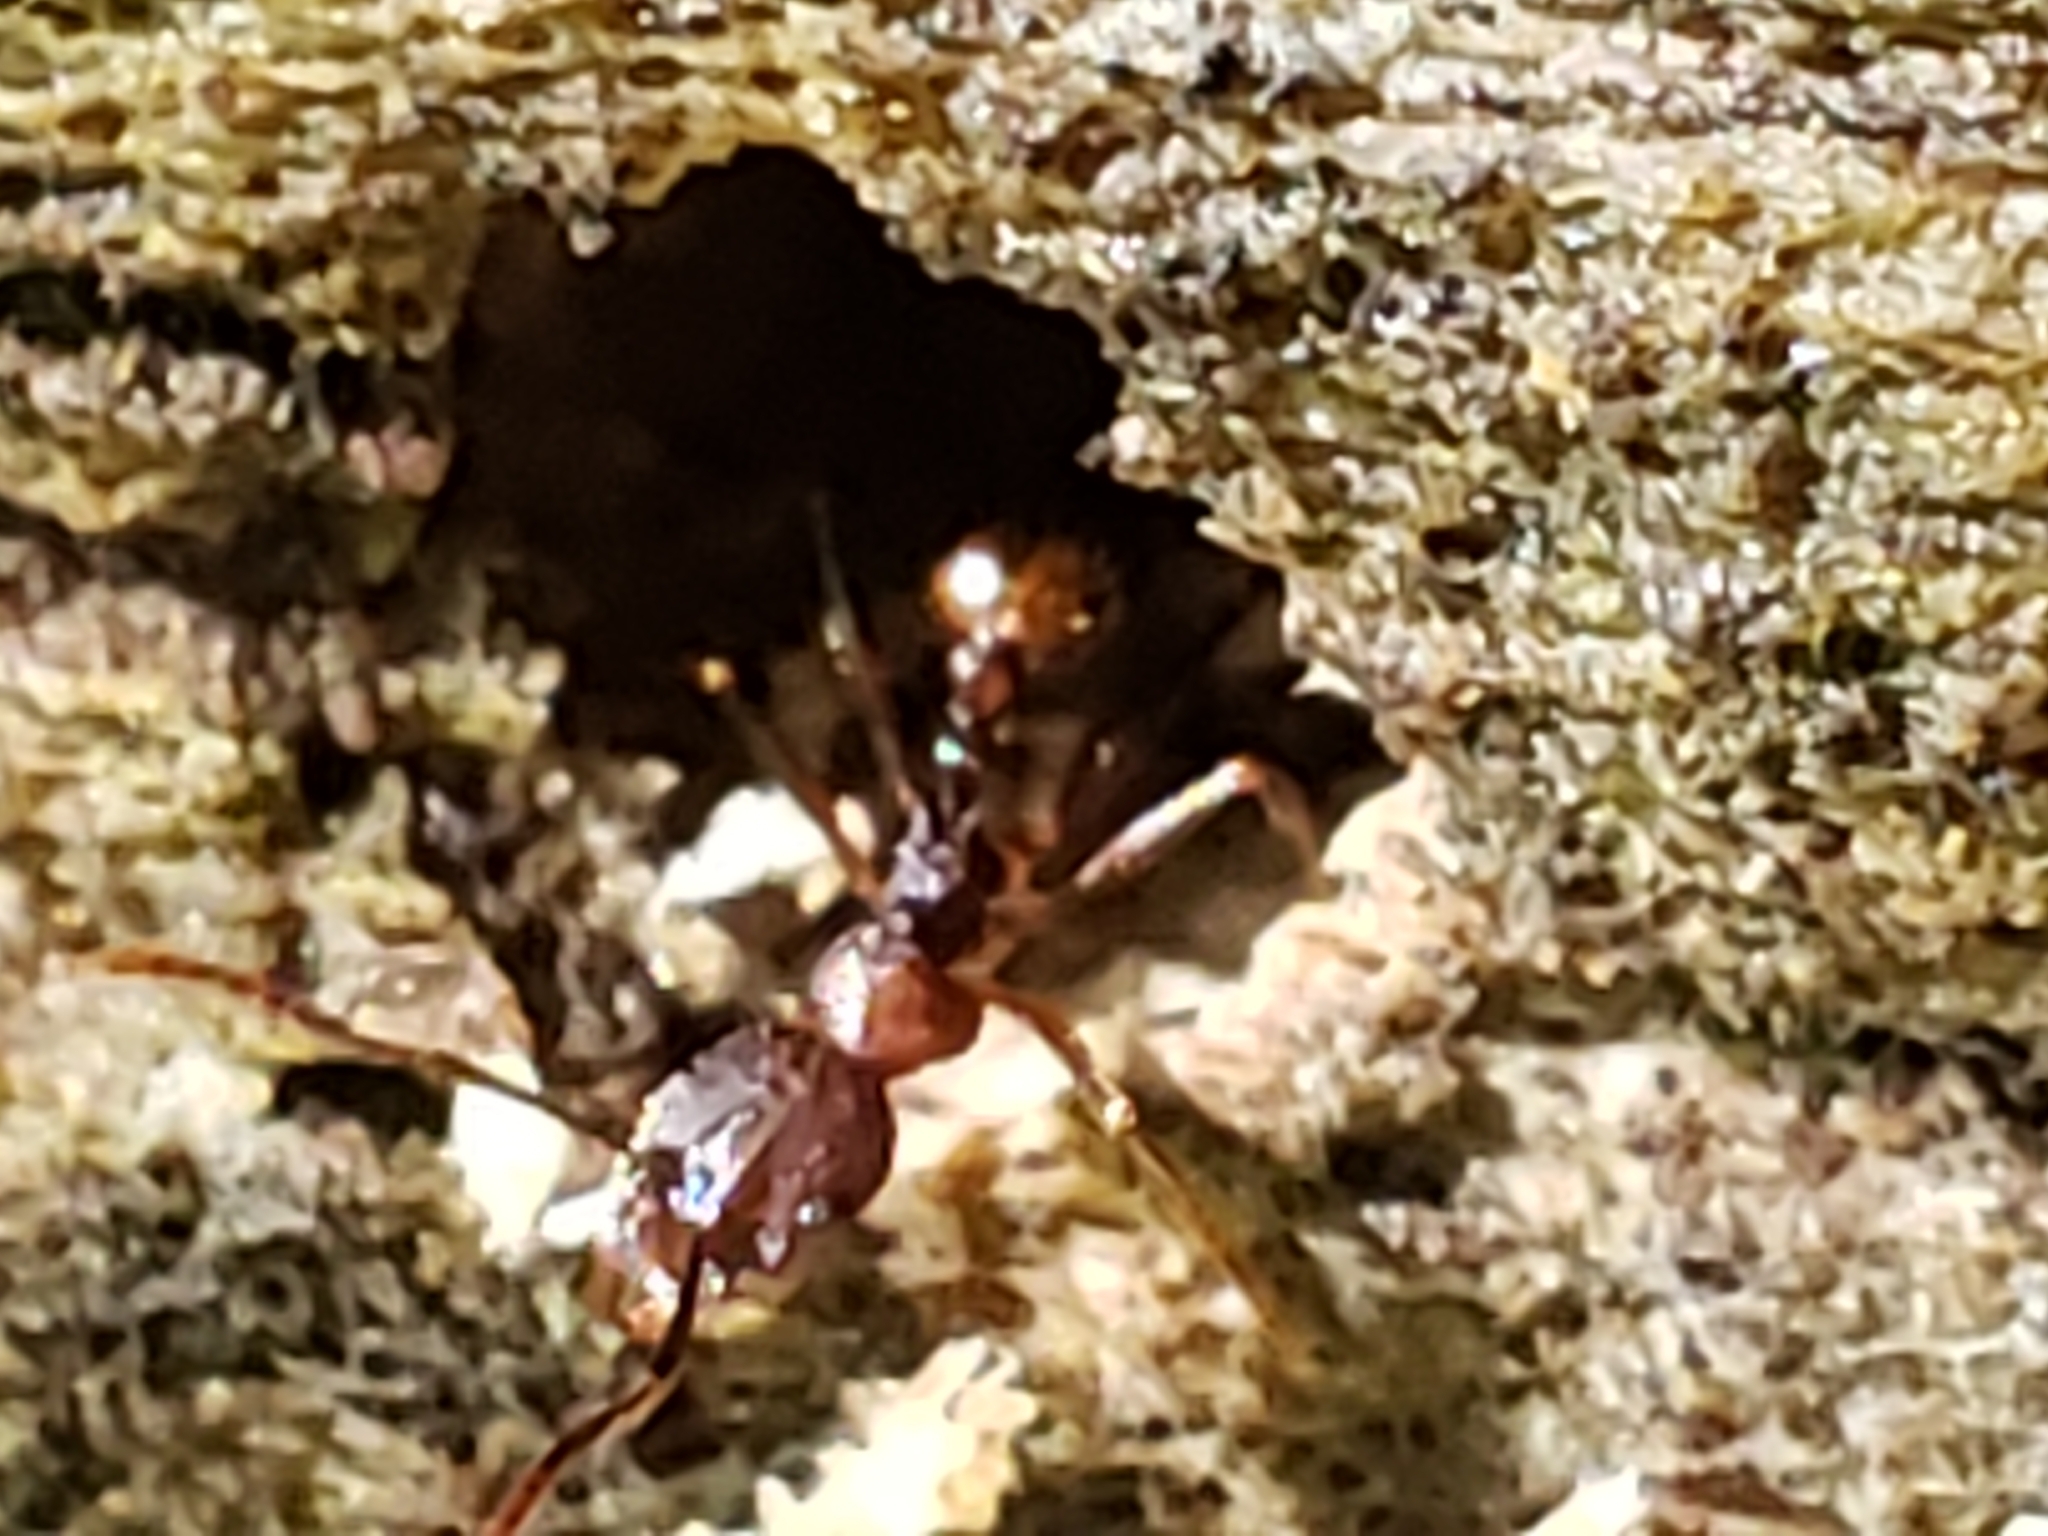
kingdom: Animalia
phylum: Arthropoda
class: Insecta
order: Hymenoptera
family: Formicidae
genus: Aphaenogaster
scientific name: Aphaenogaster fulva
